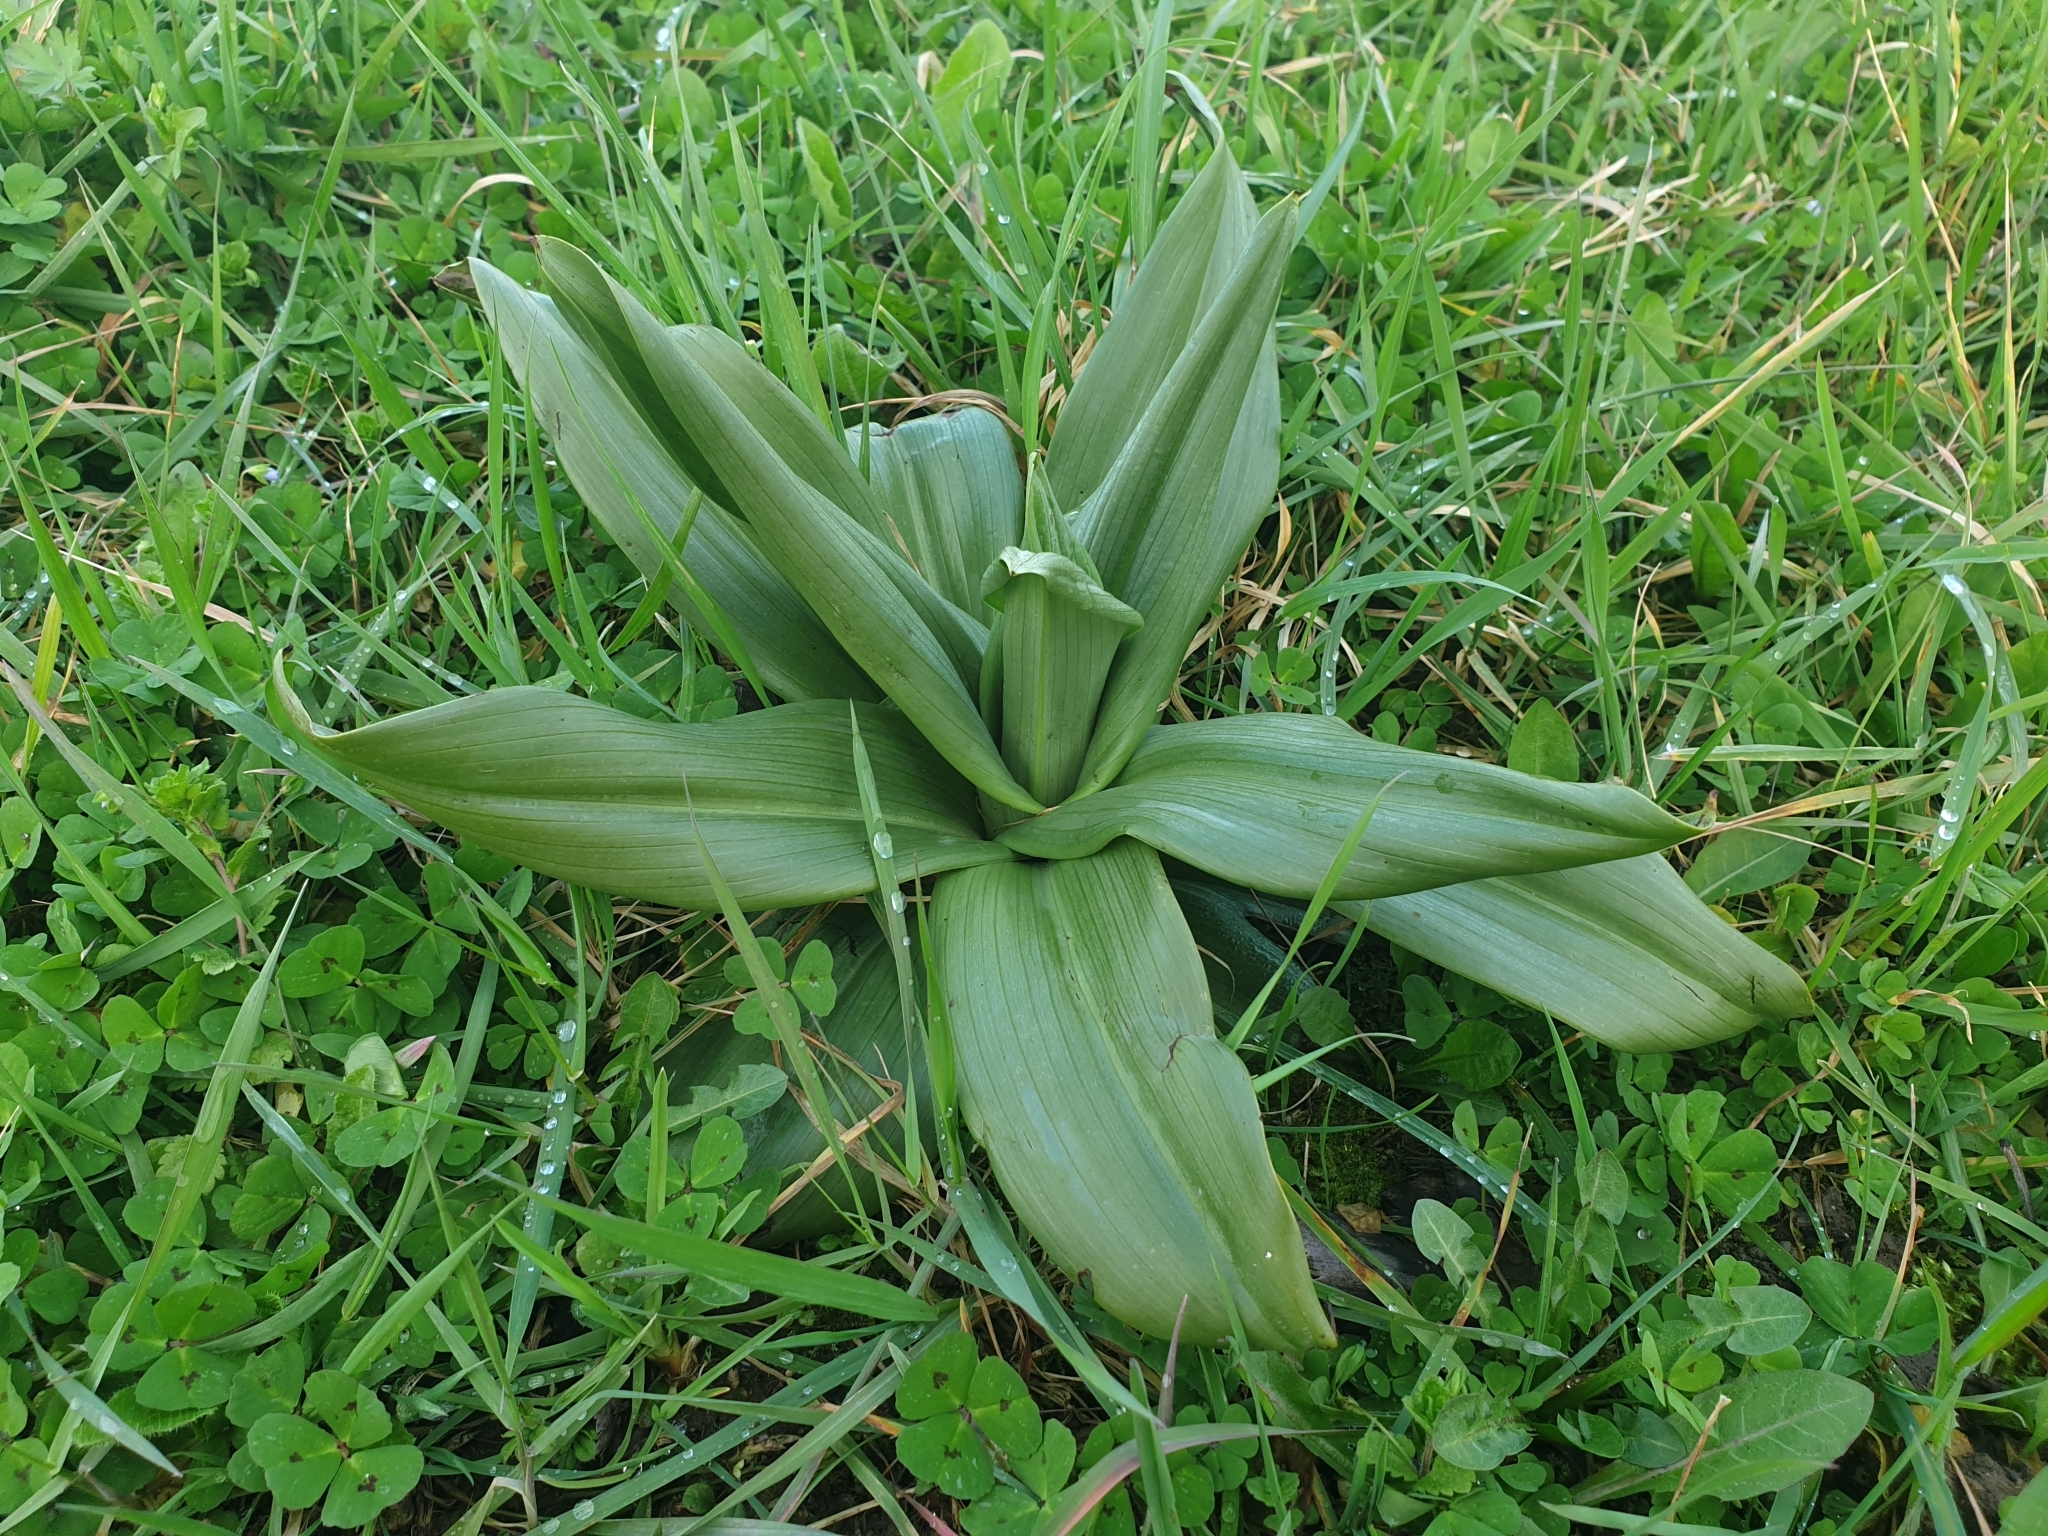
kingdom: Plantae
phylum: Tracheophyta
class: Liliopsida
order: Asparagales
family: Orchidaceae
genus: Himantoglossum
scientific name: Himantoglossum hircinum
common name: Lizard orchid
